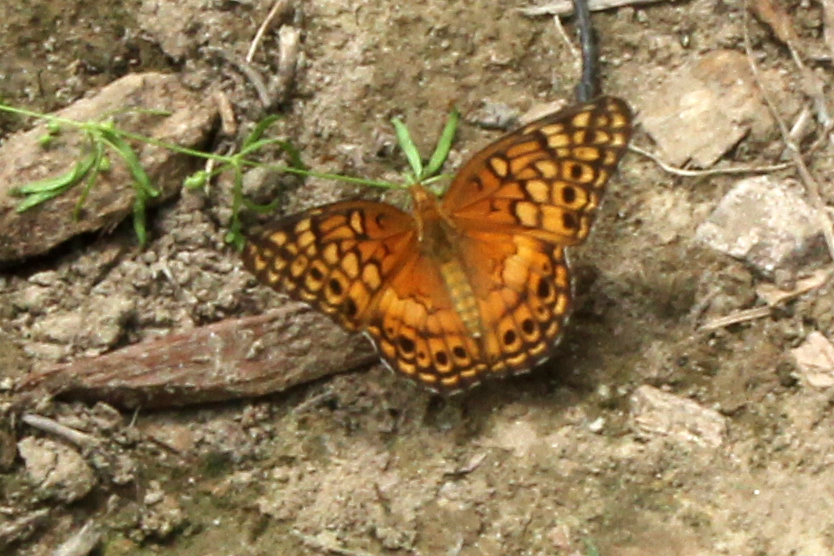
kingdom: Animalia
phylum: Arthropoda
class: Insecta
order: Lepidoptera
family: Nymphalidae
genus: Euptoieta
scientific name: Euptoieta claudia
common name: Variegated fritillary
